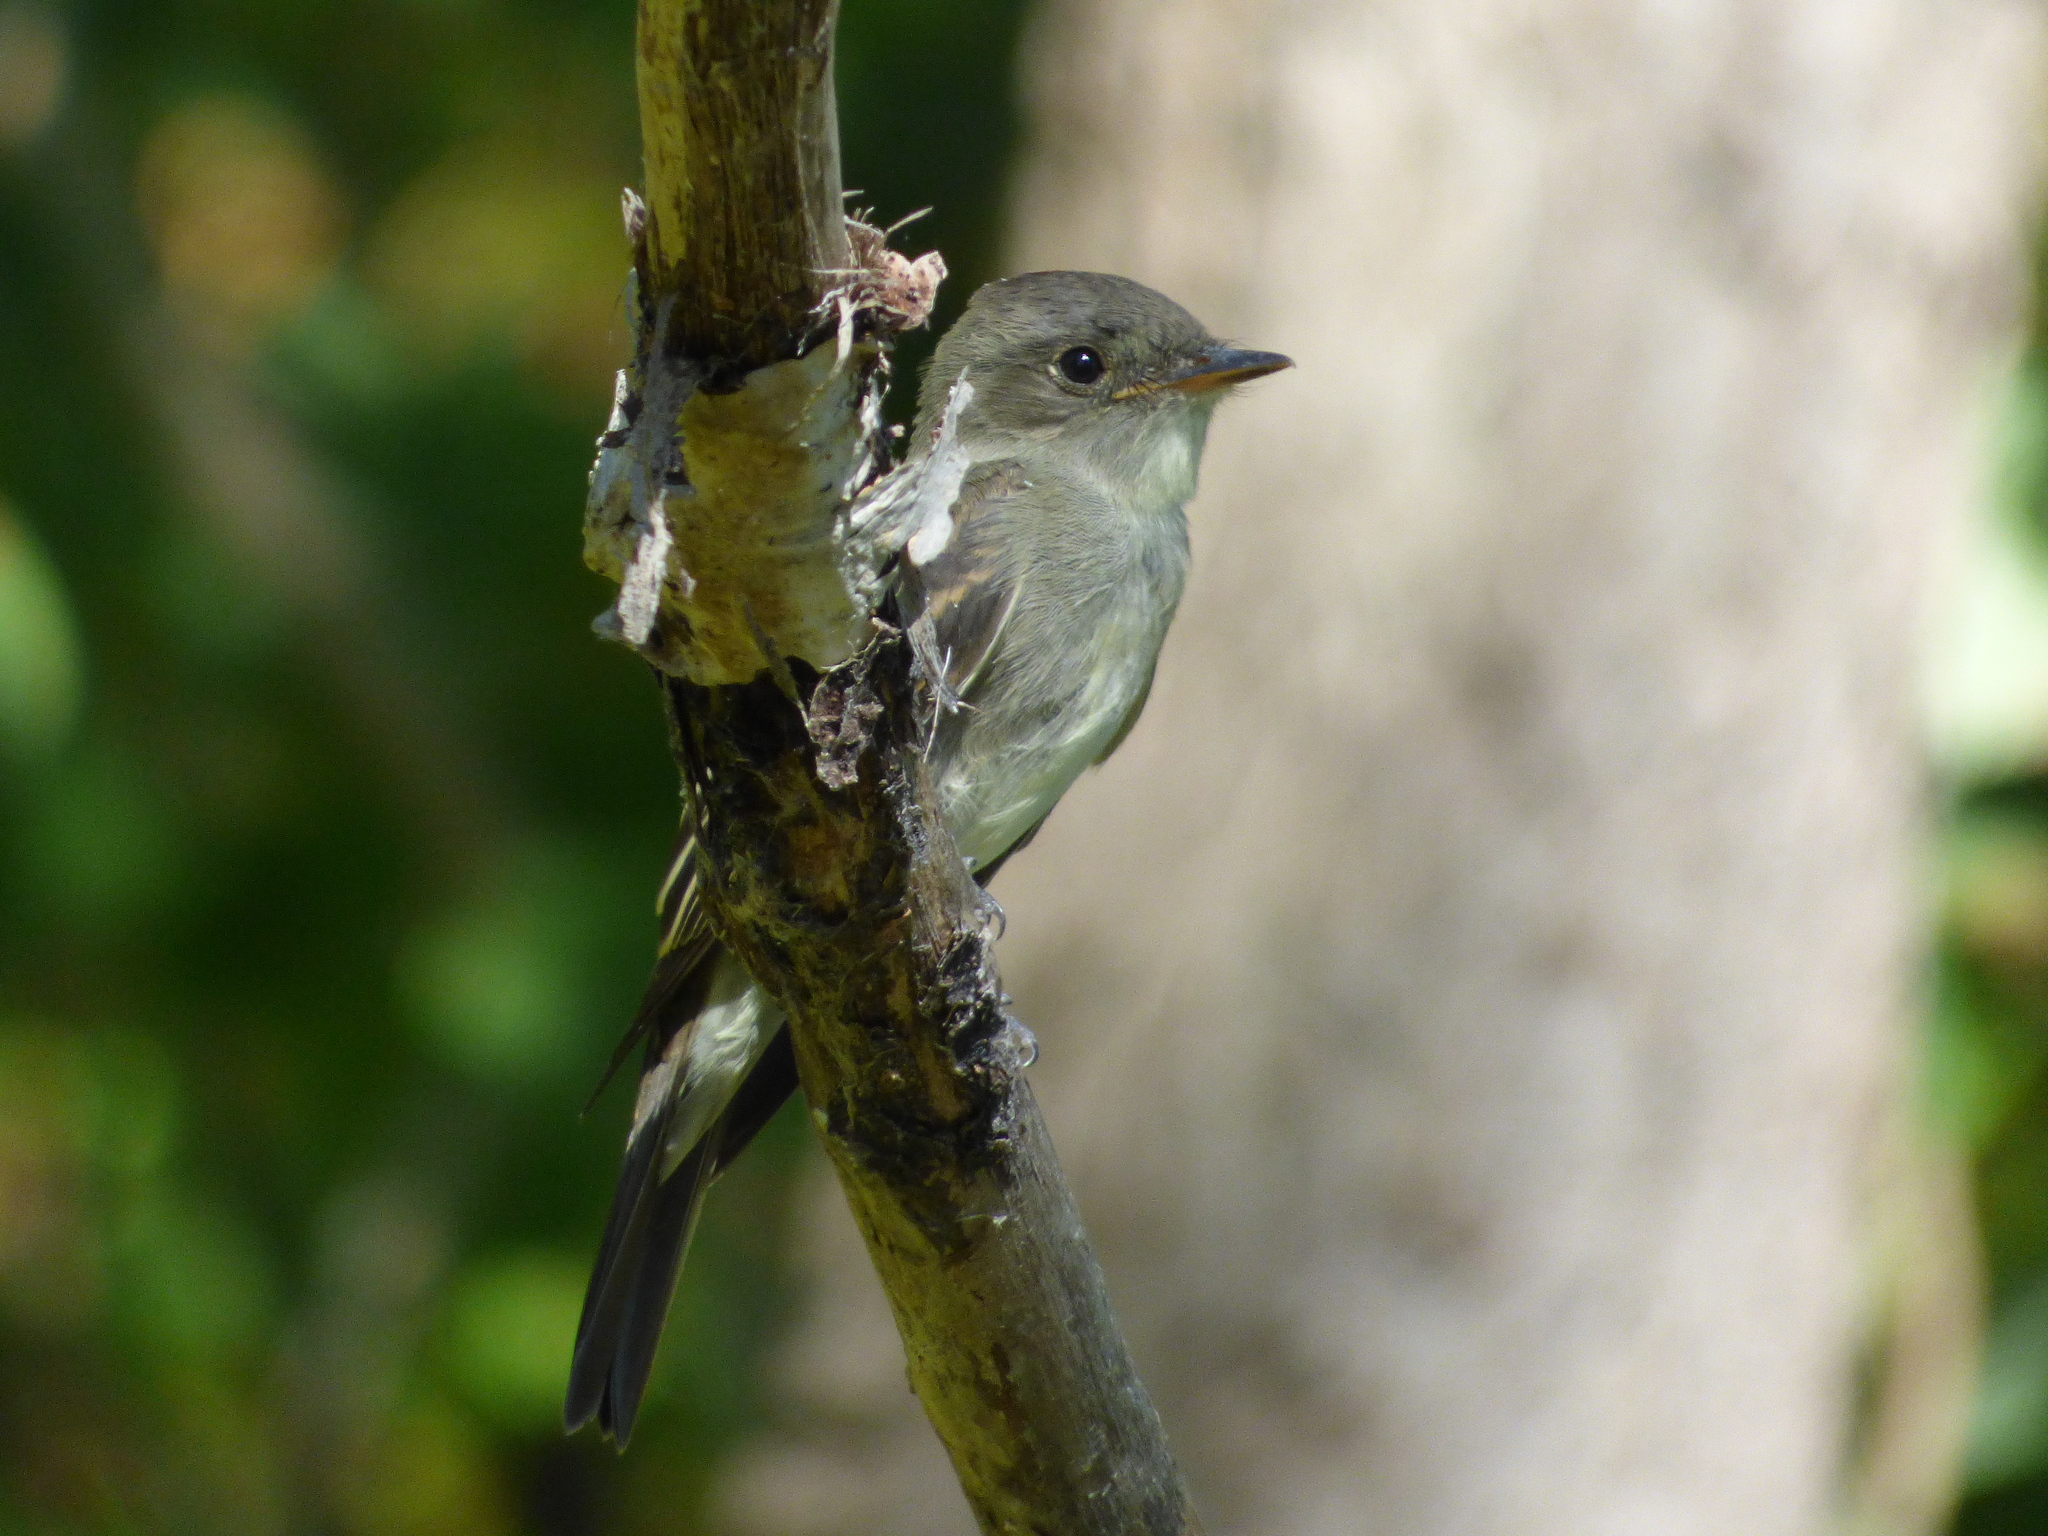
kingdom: Animalia
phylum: Chordata
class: Aves
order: Passeriformes
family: Tyrannidae
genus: Contopus
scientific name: Contopus virens
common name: Eastern wood-pewee
